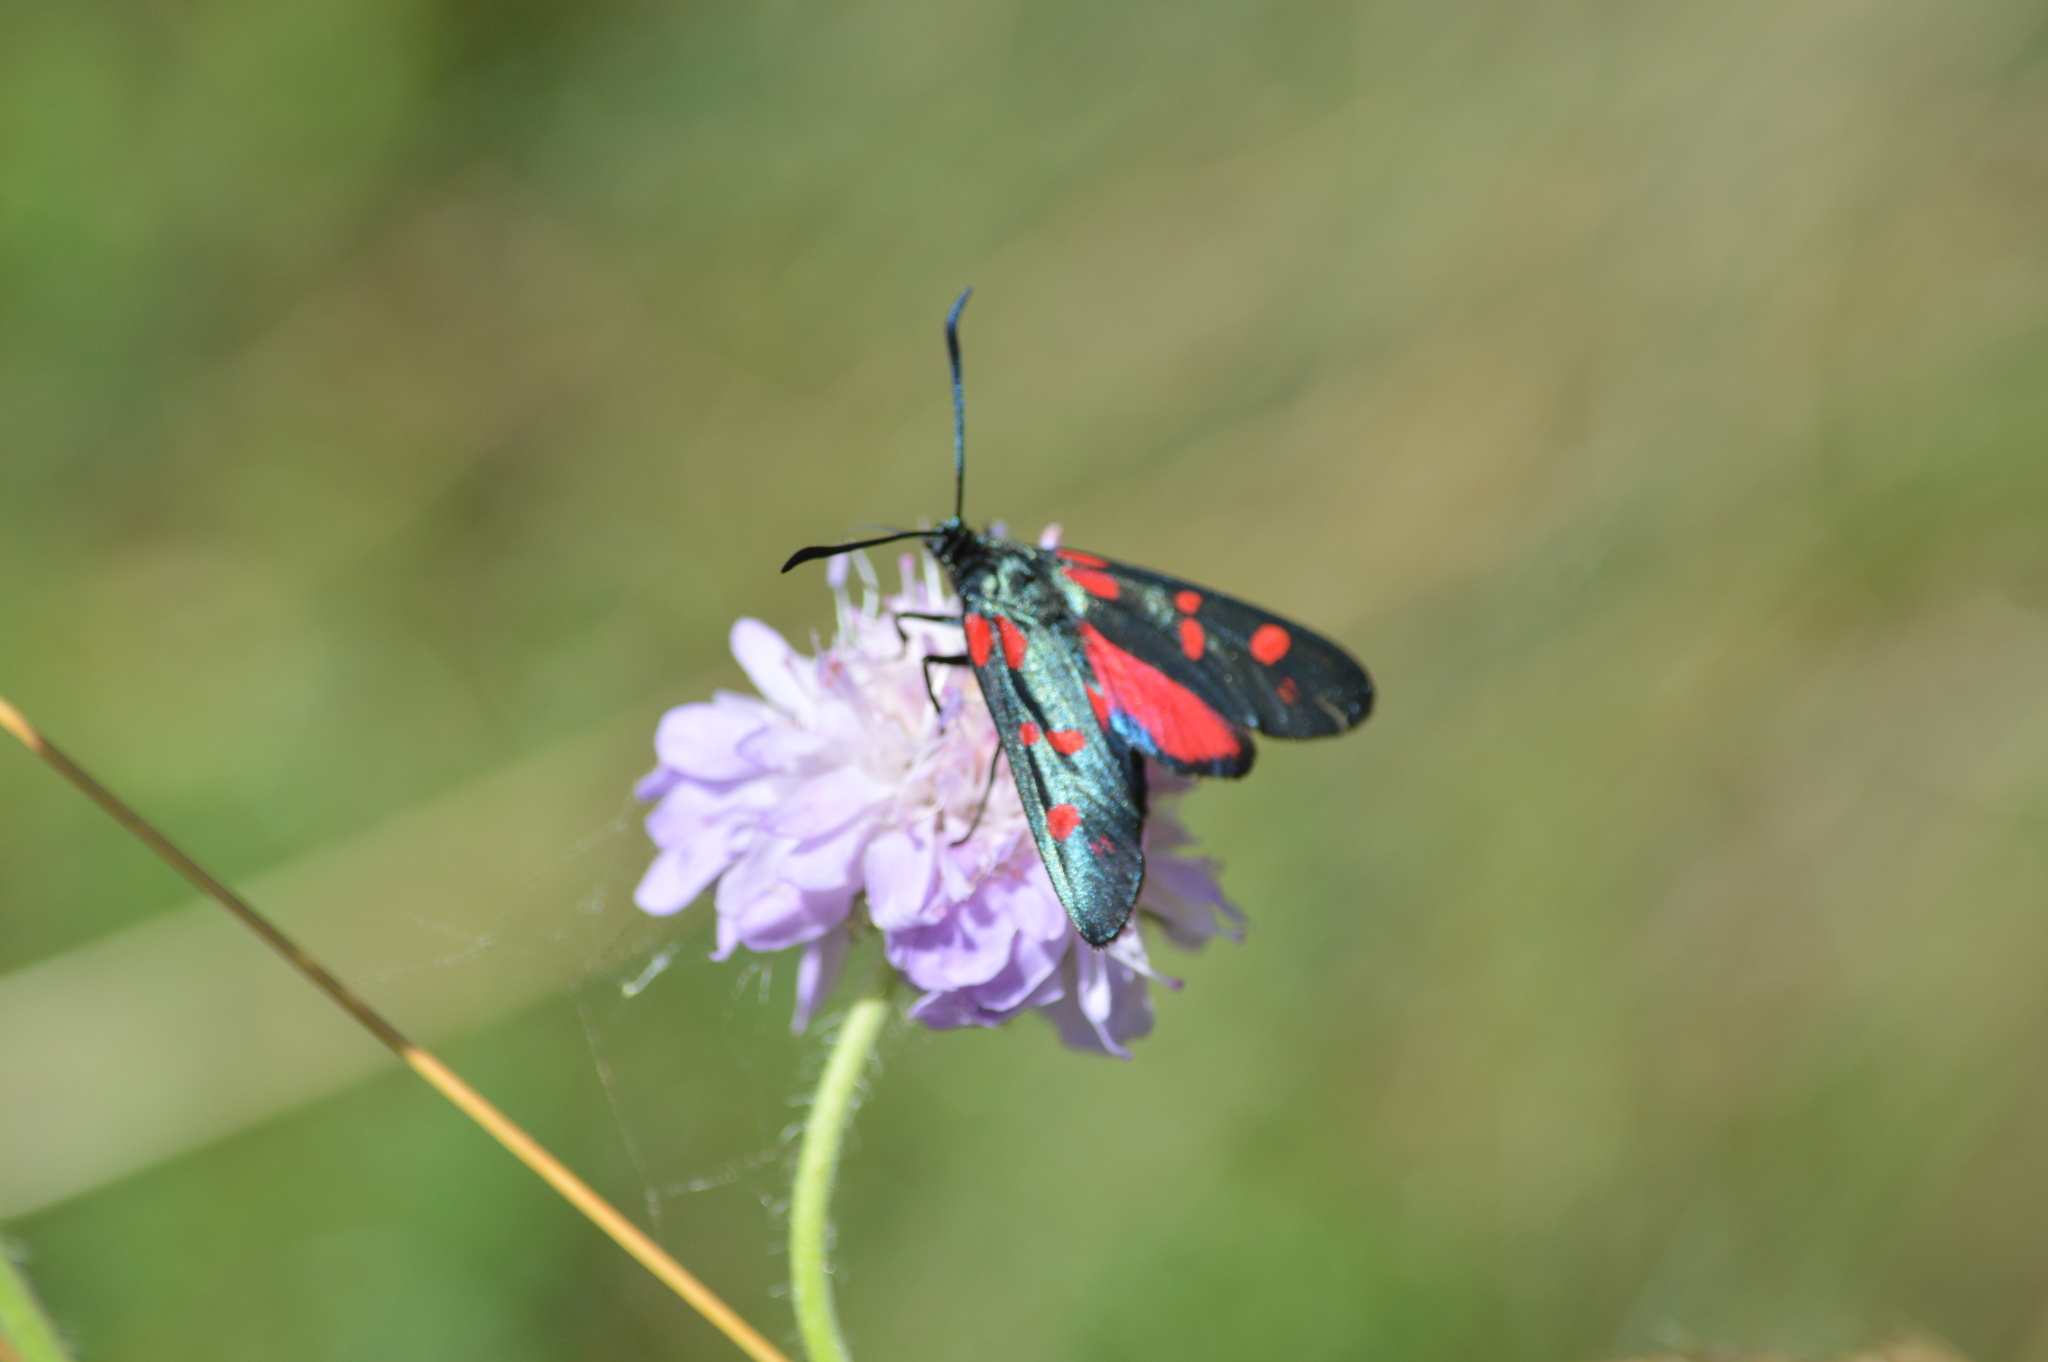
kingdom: Animalia
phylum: Arthropoda
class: Insecta
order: Lepidoptera
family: Zygaenidae
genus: Zygaena
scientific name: Zygaena filipendulae
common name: Six-spot burnet
